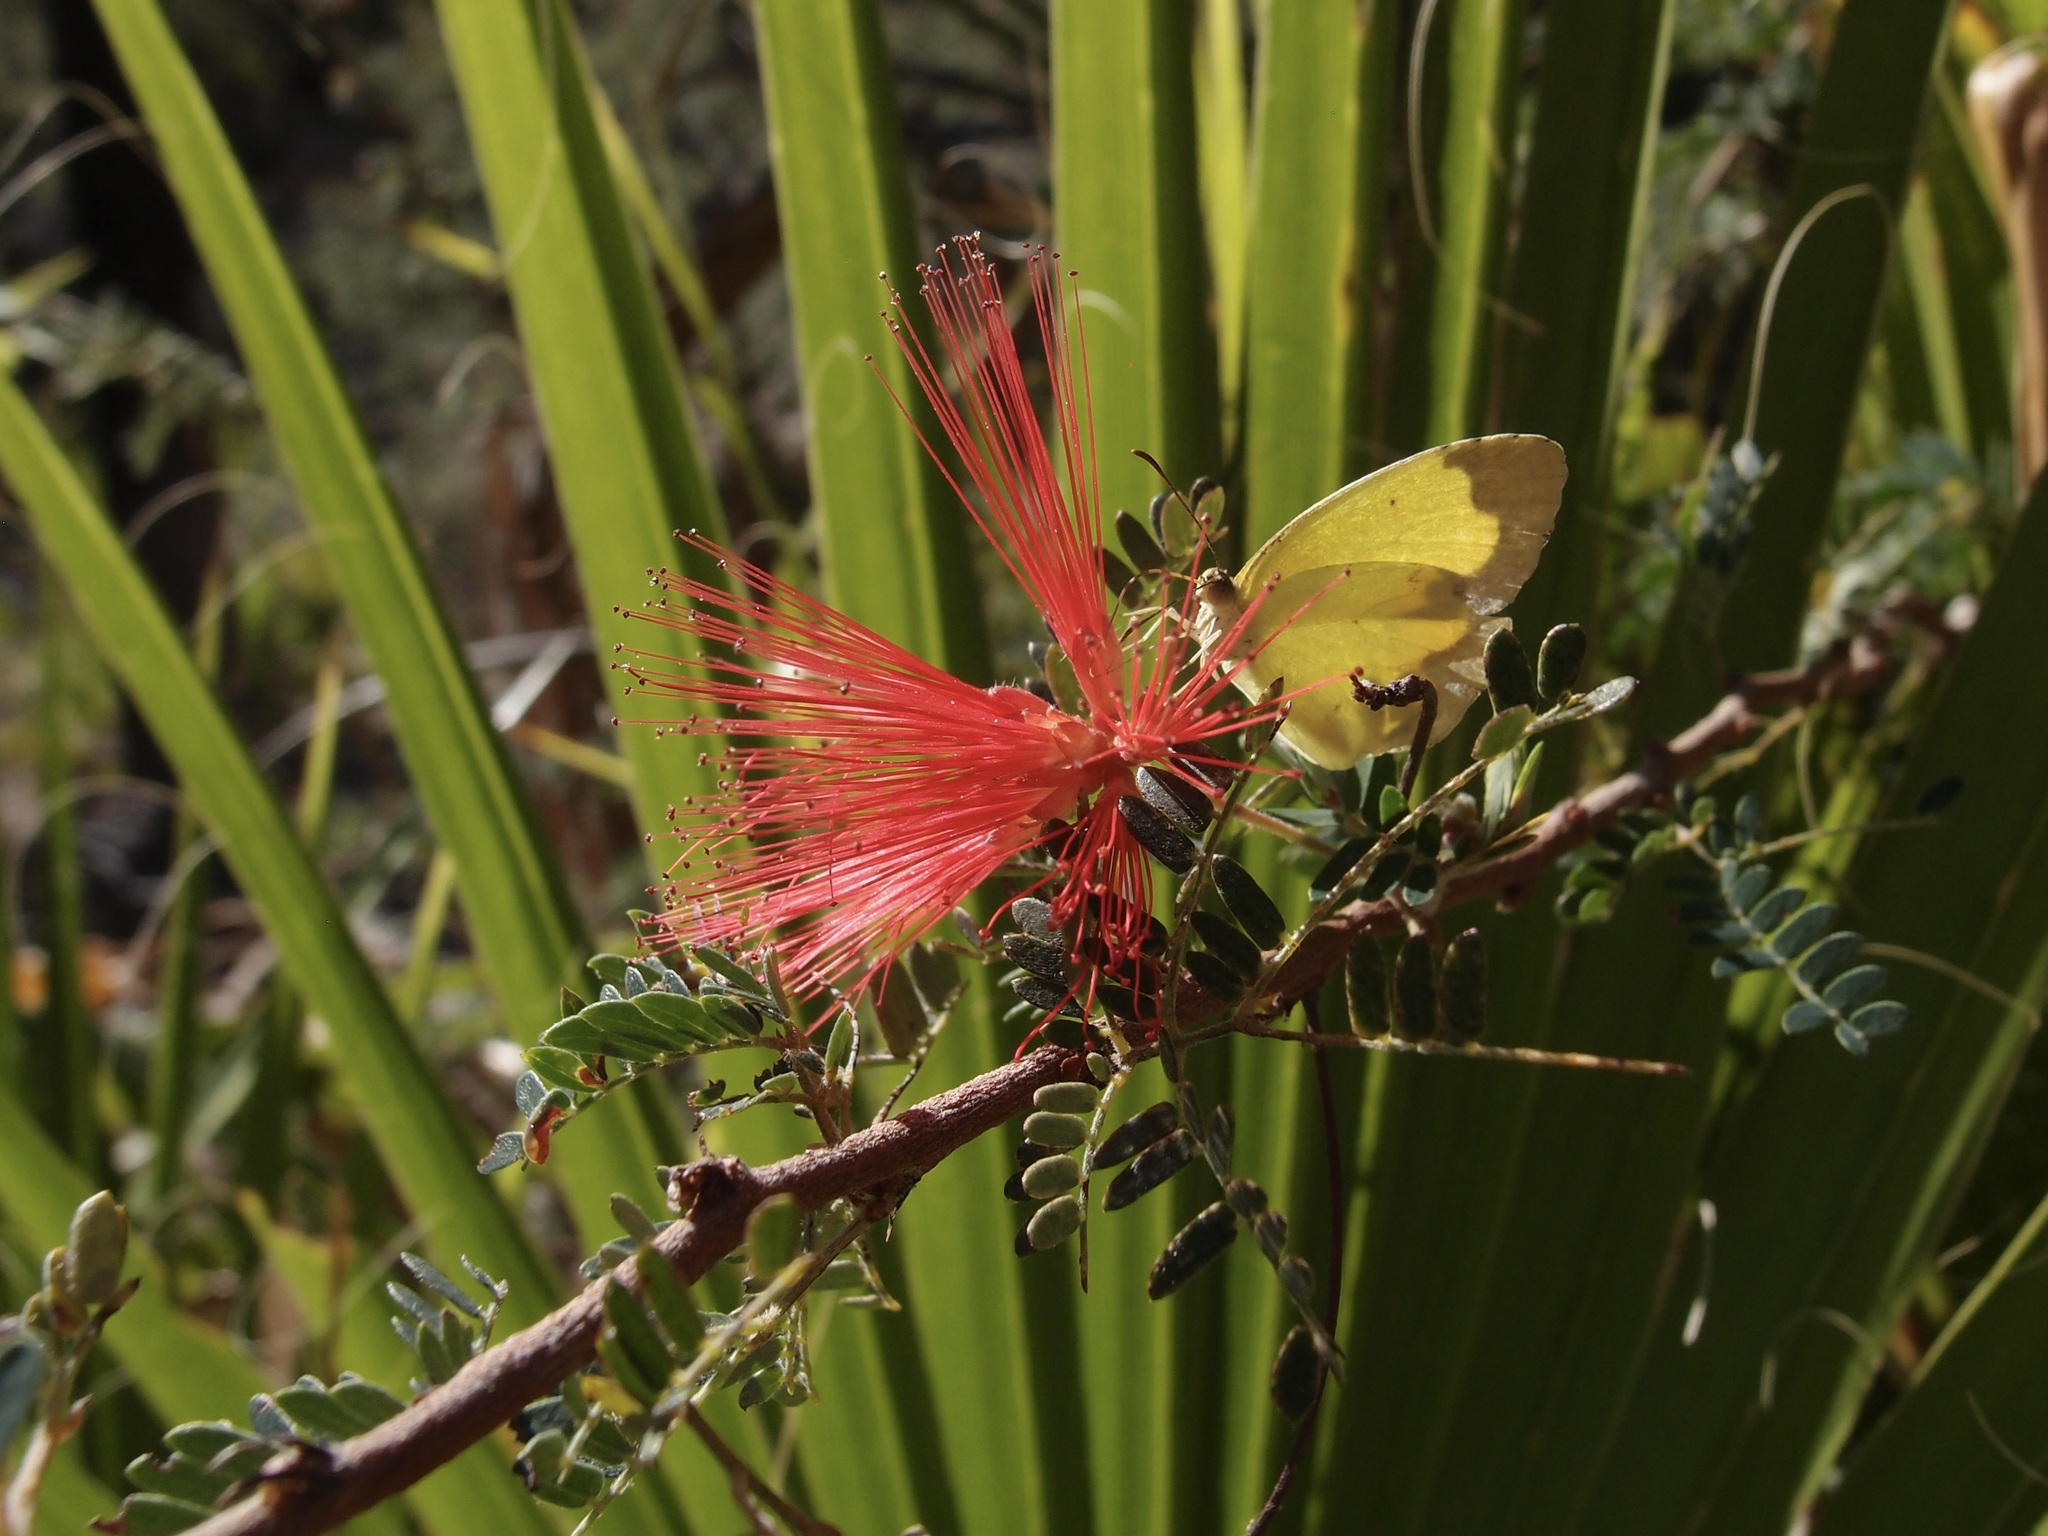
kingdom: Plantae
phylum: Tracheophyta
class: Magnoliopsida
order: Fabales
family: Fabaceae
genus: Calliandra
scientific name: Calliandra californica
